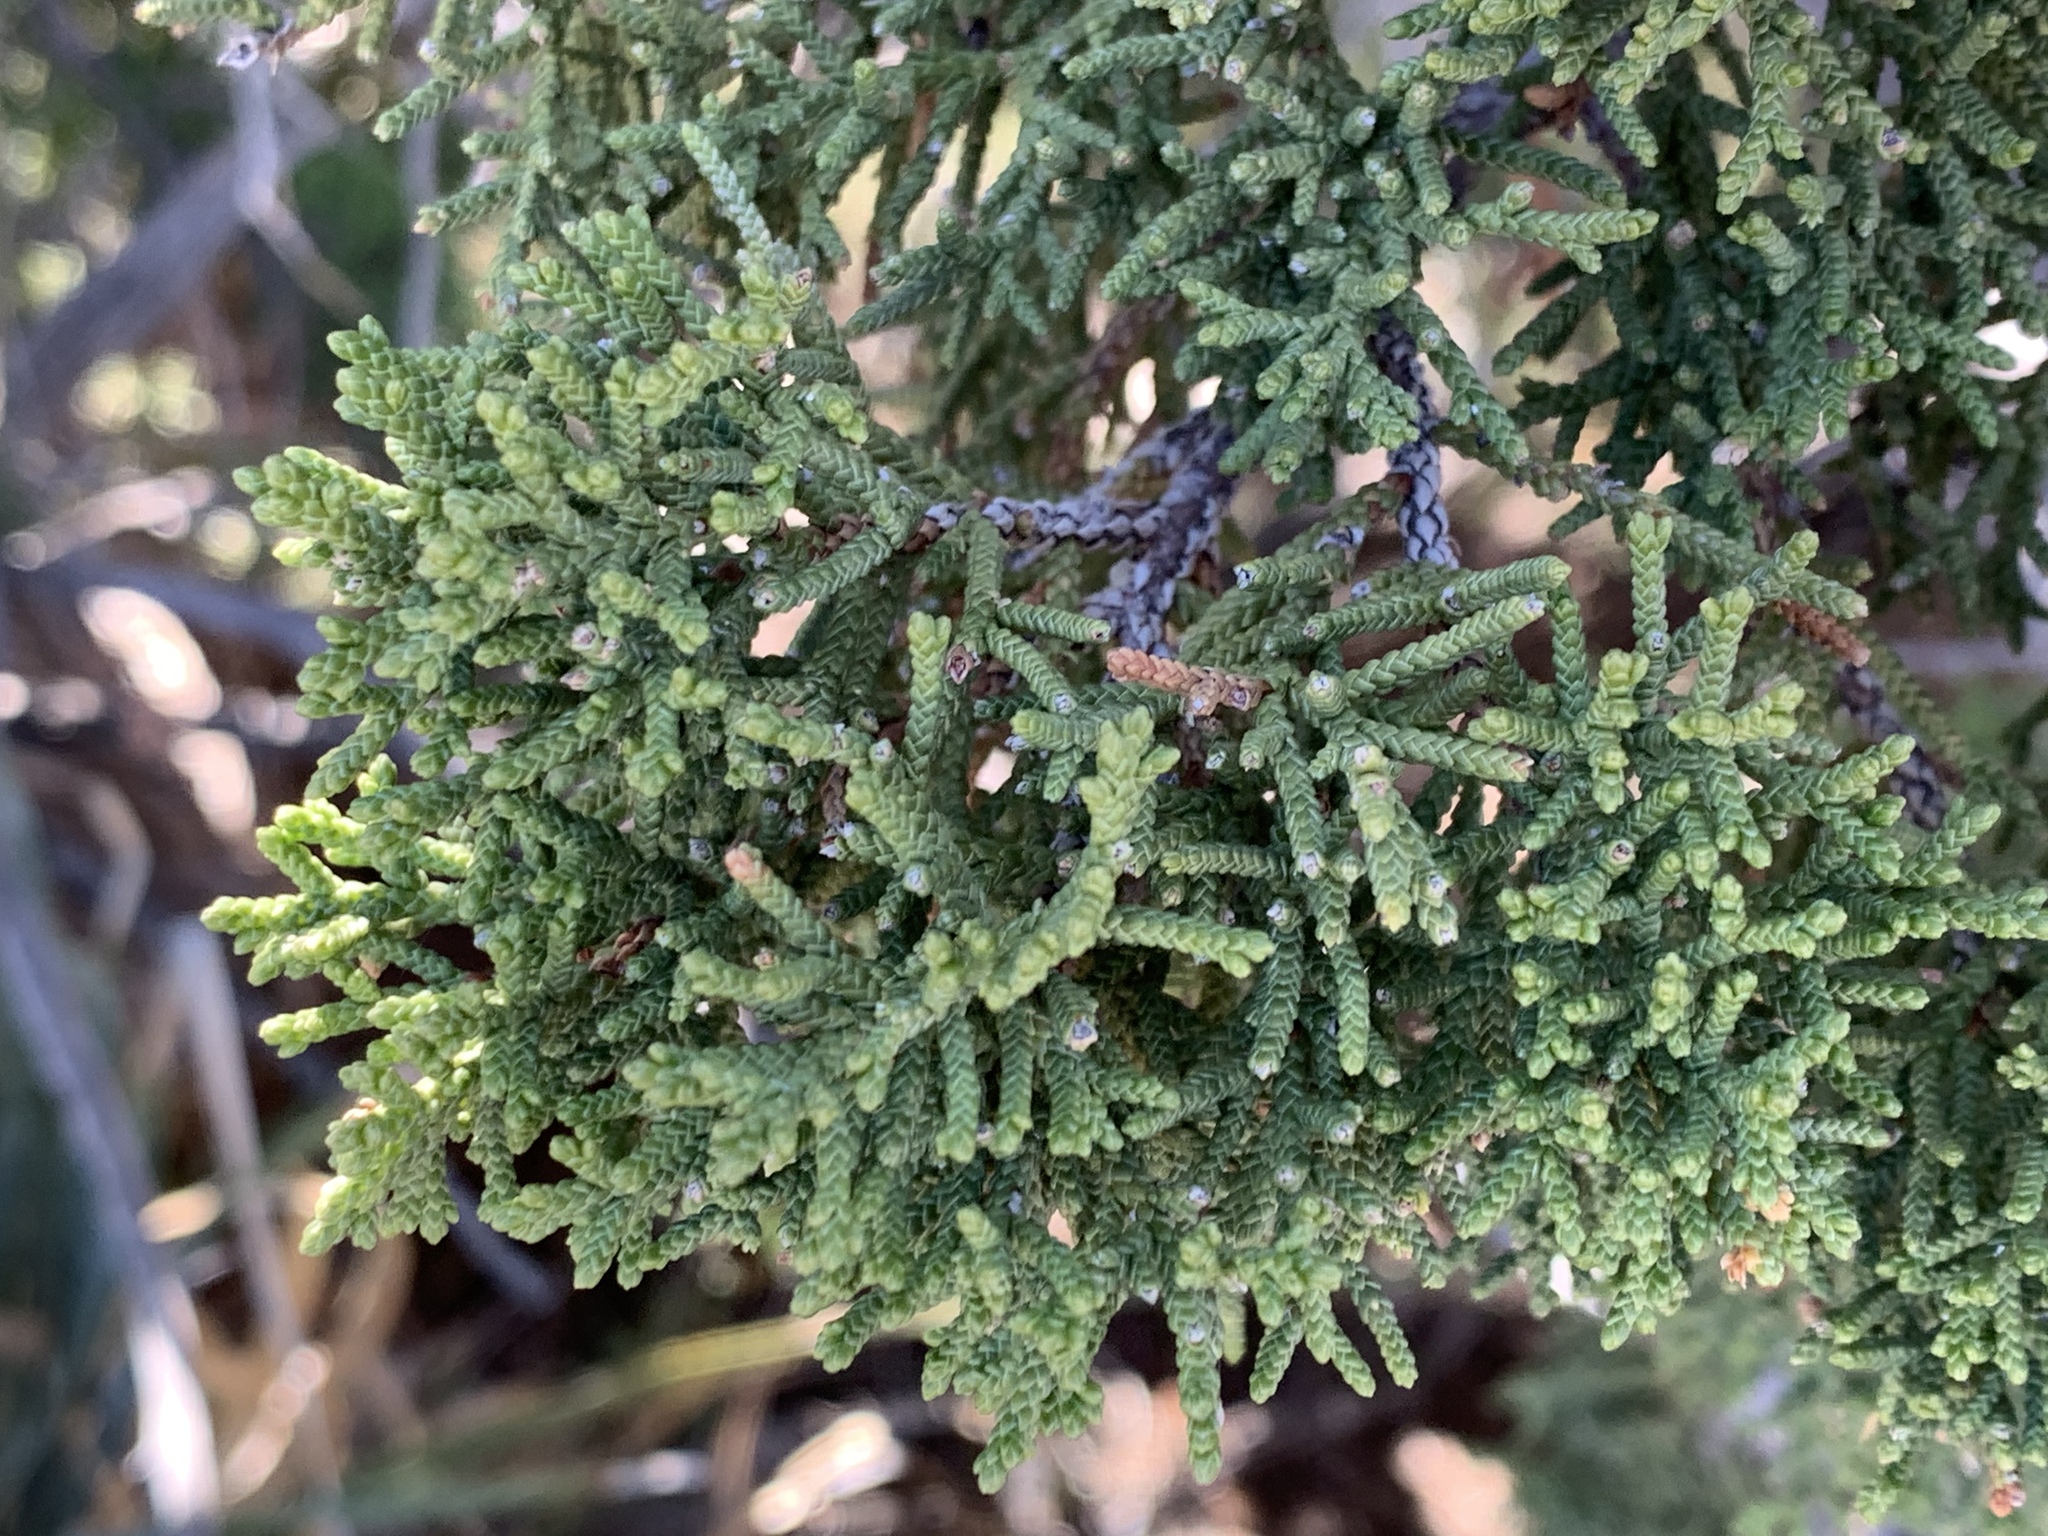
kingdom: Plantae
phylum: Tracheophyta
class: Pinopsida
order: Pinales
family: Cupressaceae
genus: Juniperus
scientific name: Juniperus monosperma
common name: One-seed juniper
